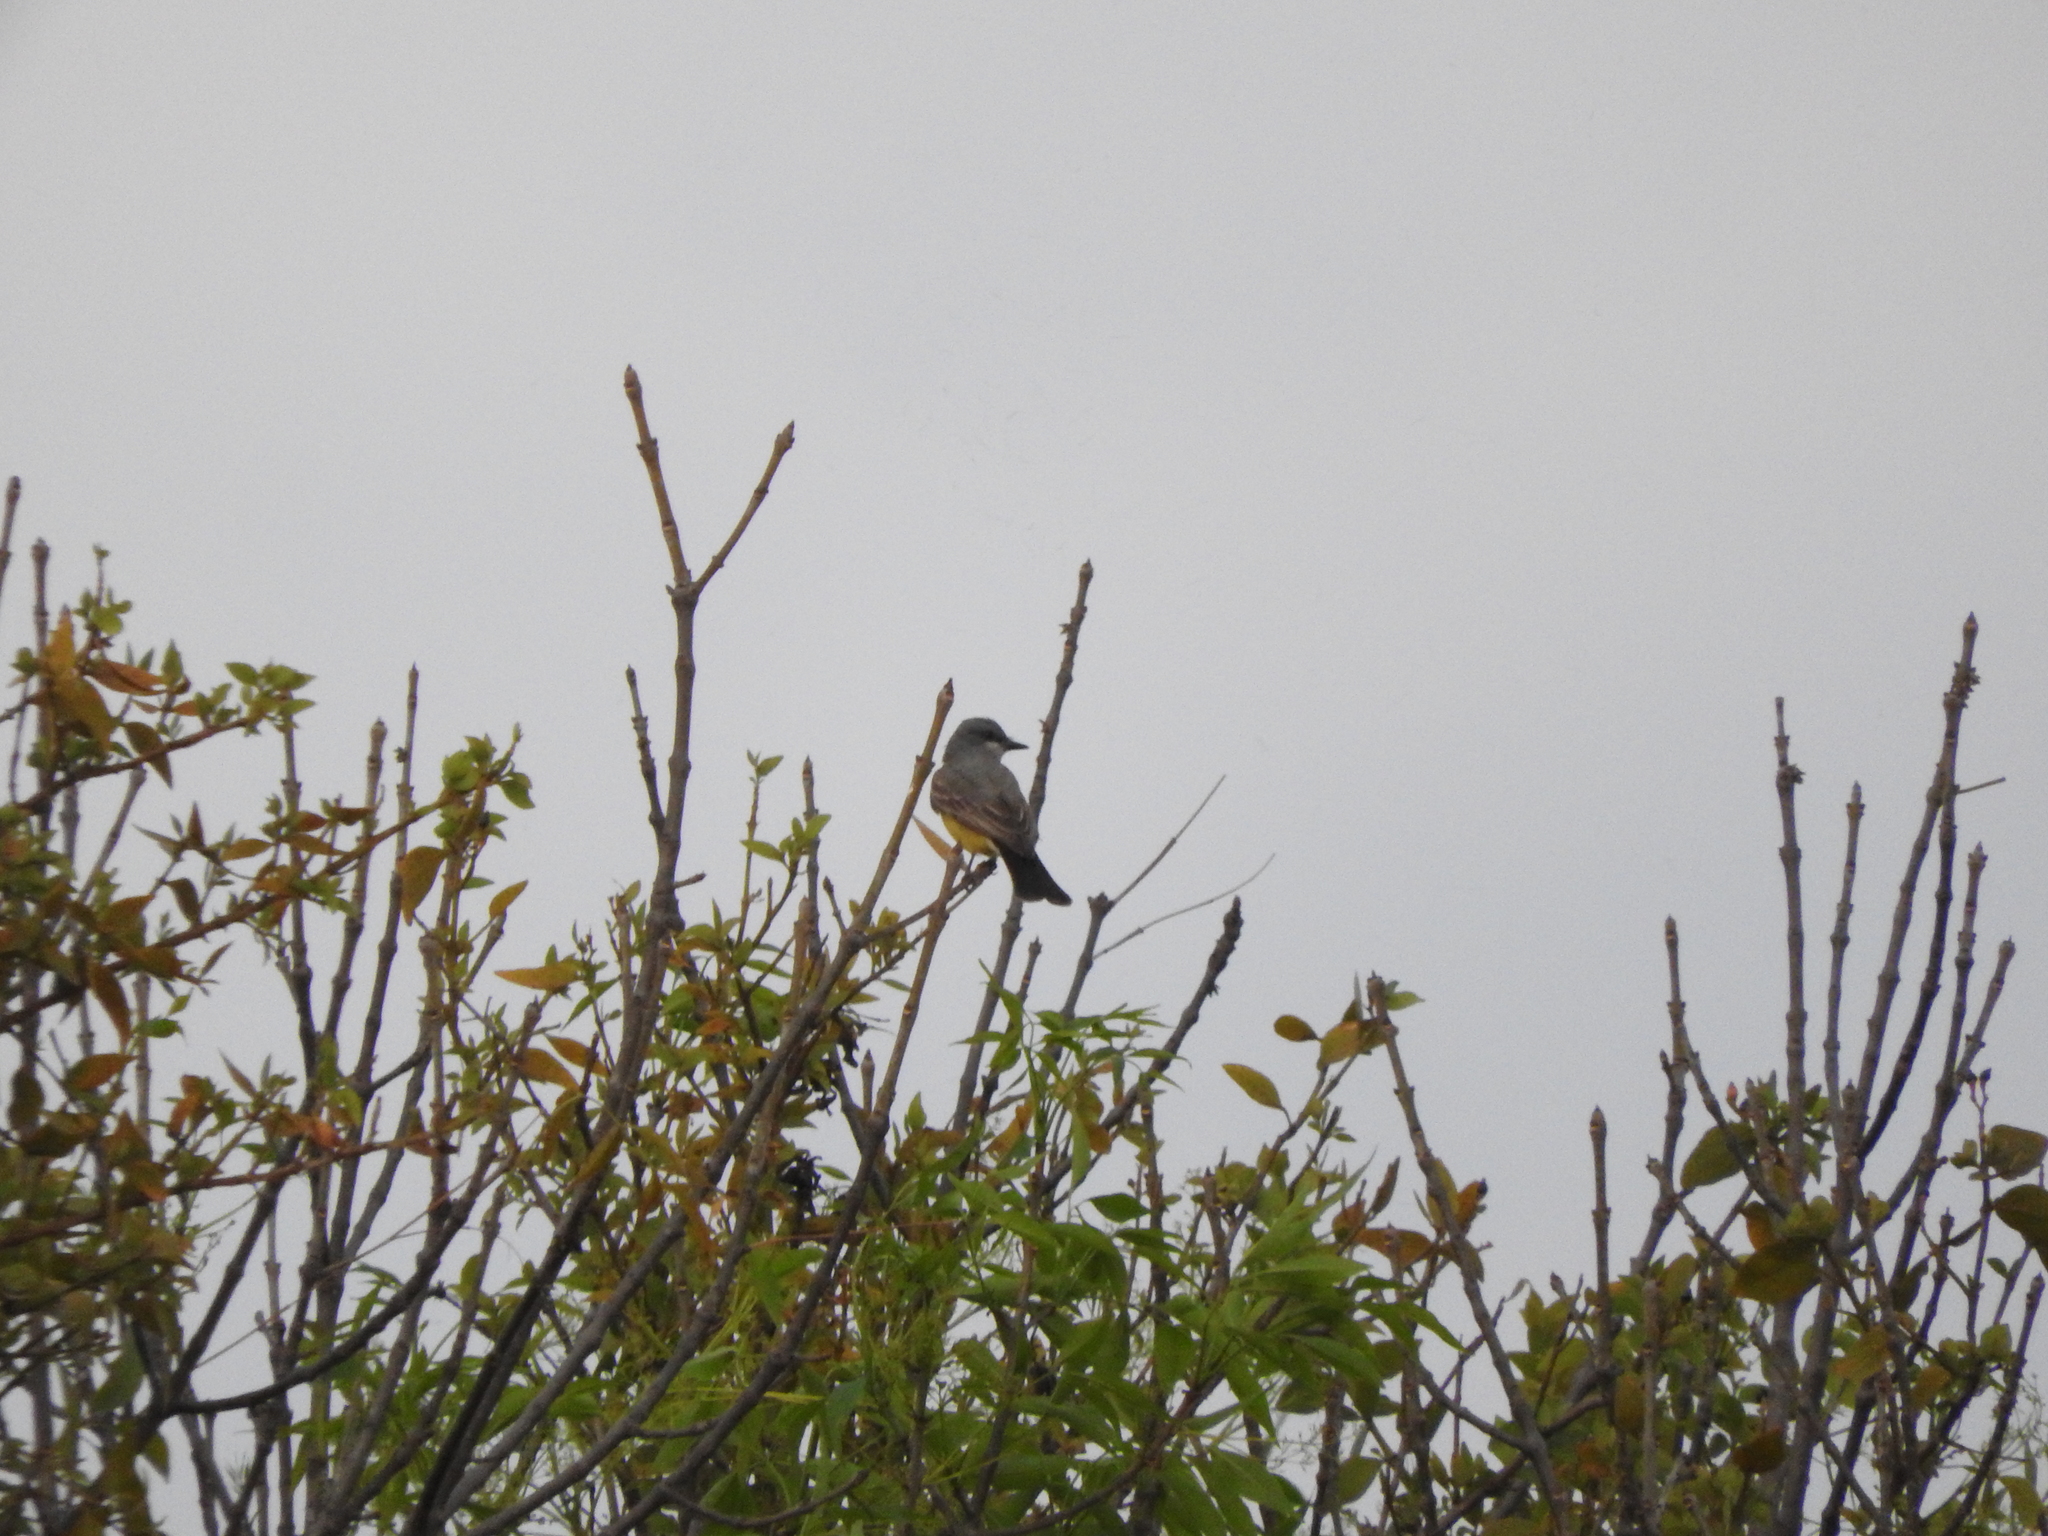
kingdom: Animalia
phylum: Chordata
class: Aves
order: Passeriformes
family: Tyrannidae
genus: Tyrannus
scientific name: Tyrannus vociferans
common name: Cassin's kingbird
